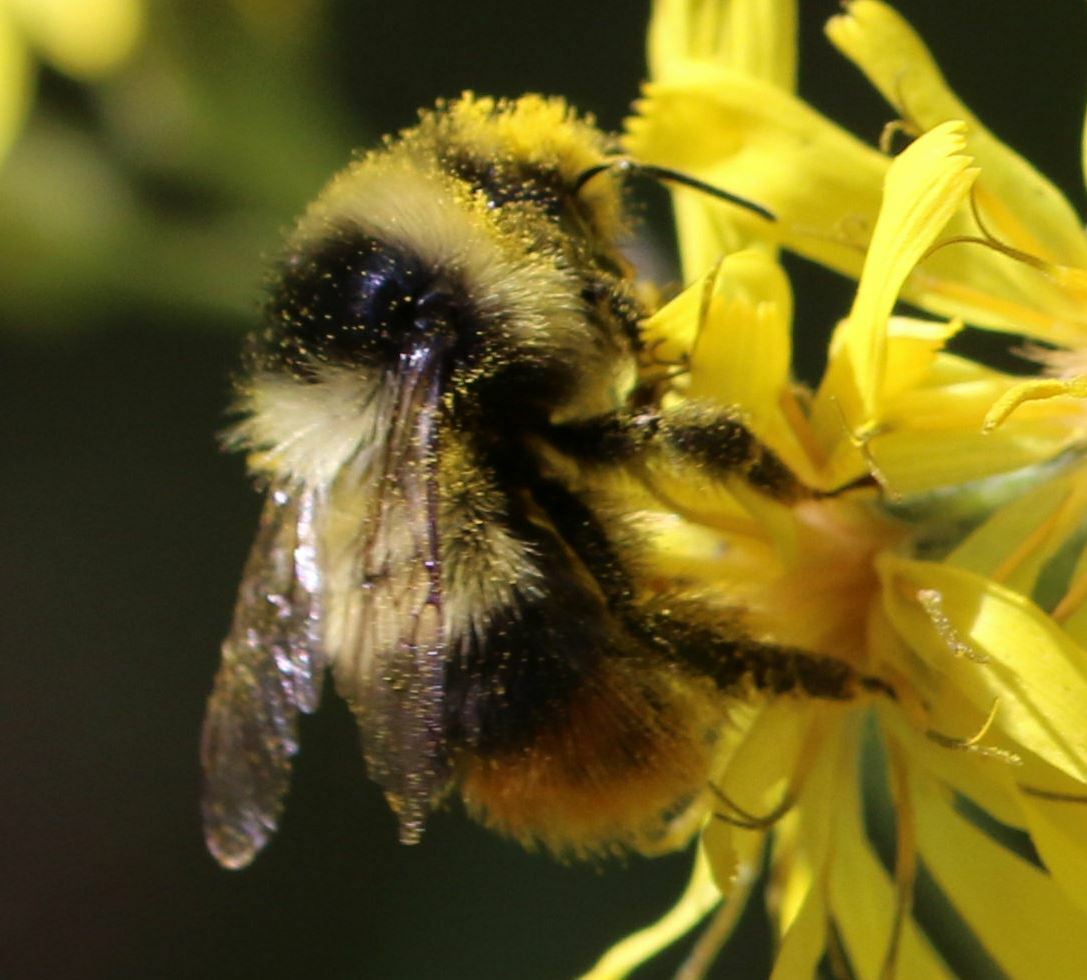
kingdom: Animalia
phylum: Arthropoda
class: Insecta
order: Hymenoptera
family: Apidae
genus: Bombus
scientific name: Bombus sichelii
